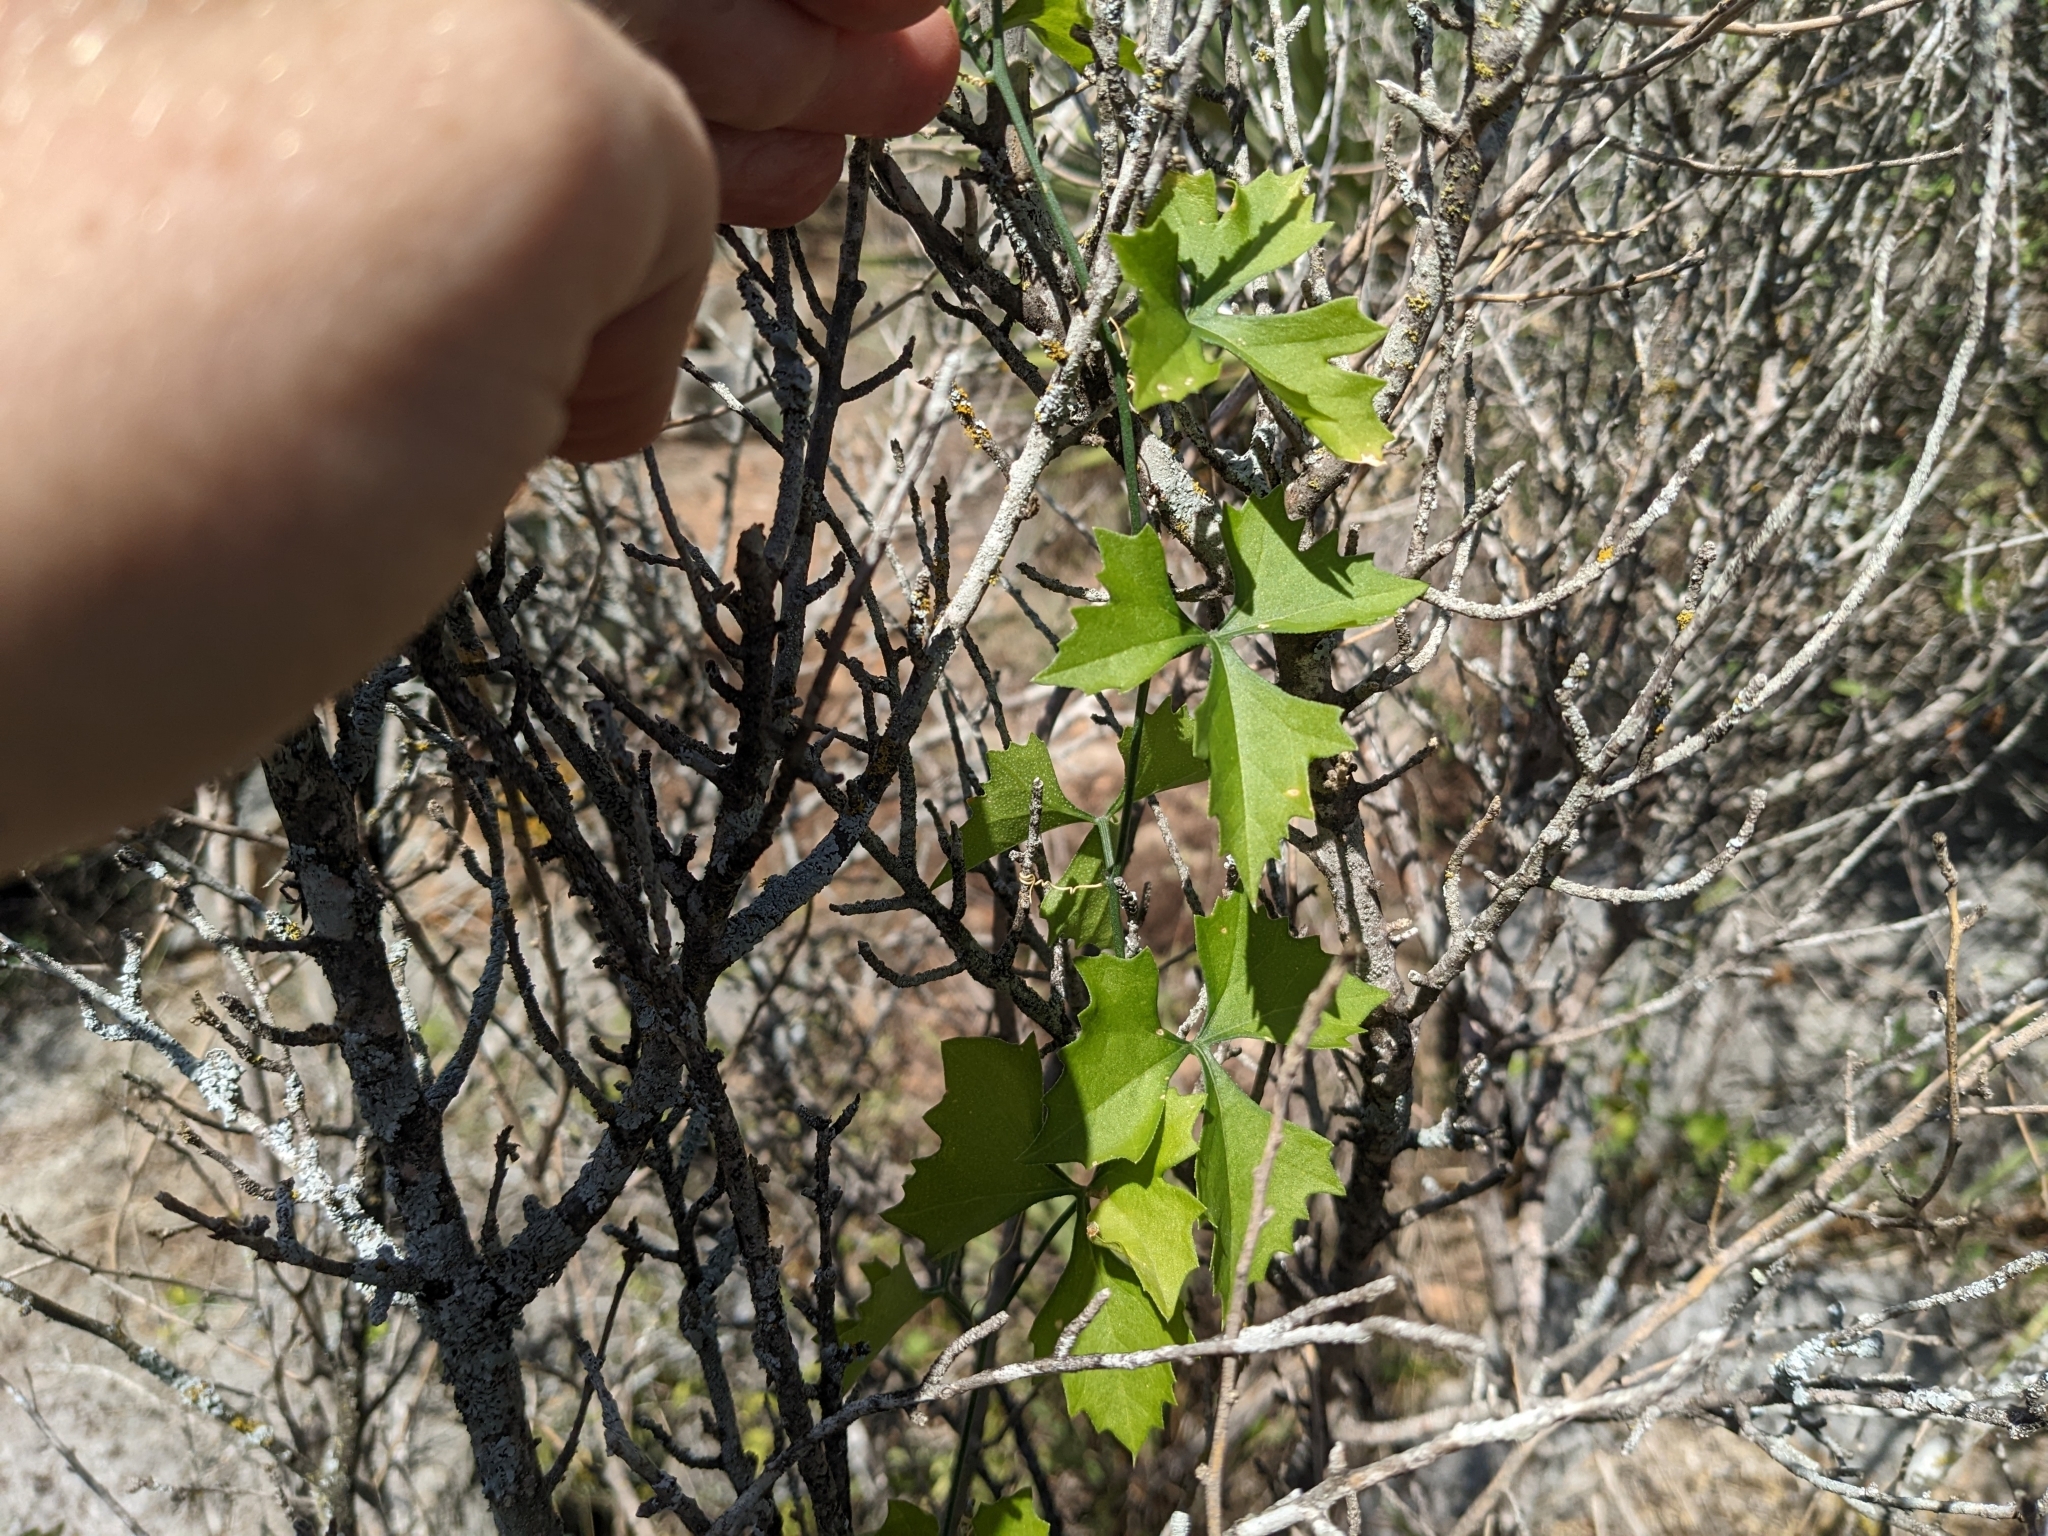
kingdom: Plantae
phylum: Tracheophyta
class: Magnoliopsida
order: Cucurbitales
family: Cucurbitaceae
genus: Ibervillea
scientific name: Ibervillea lindheimeri
